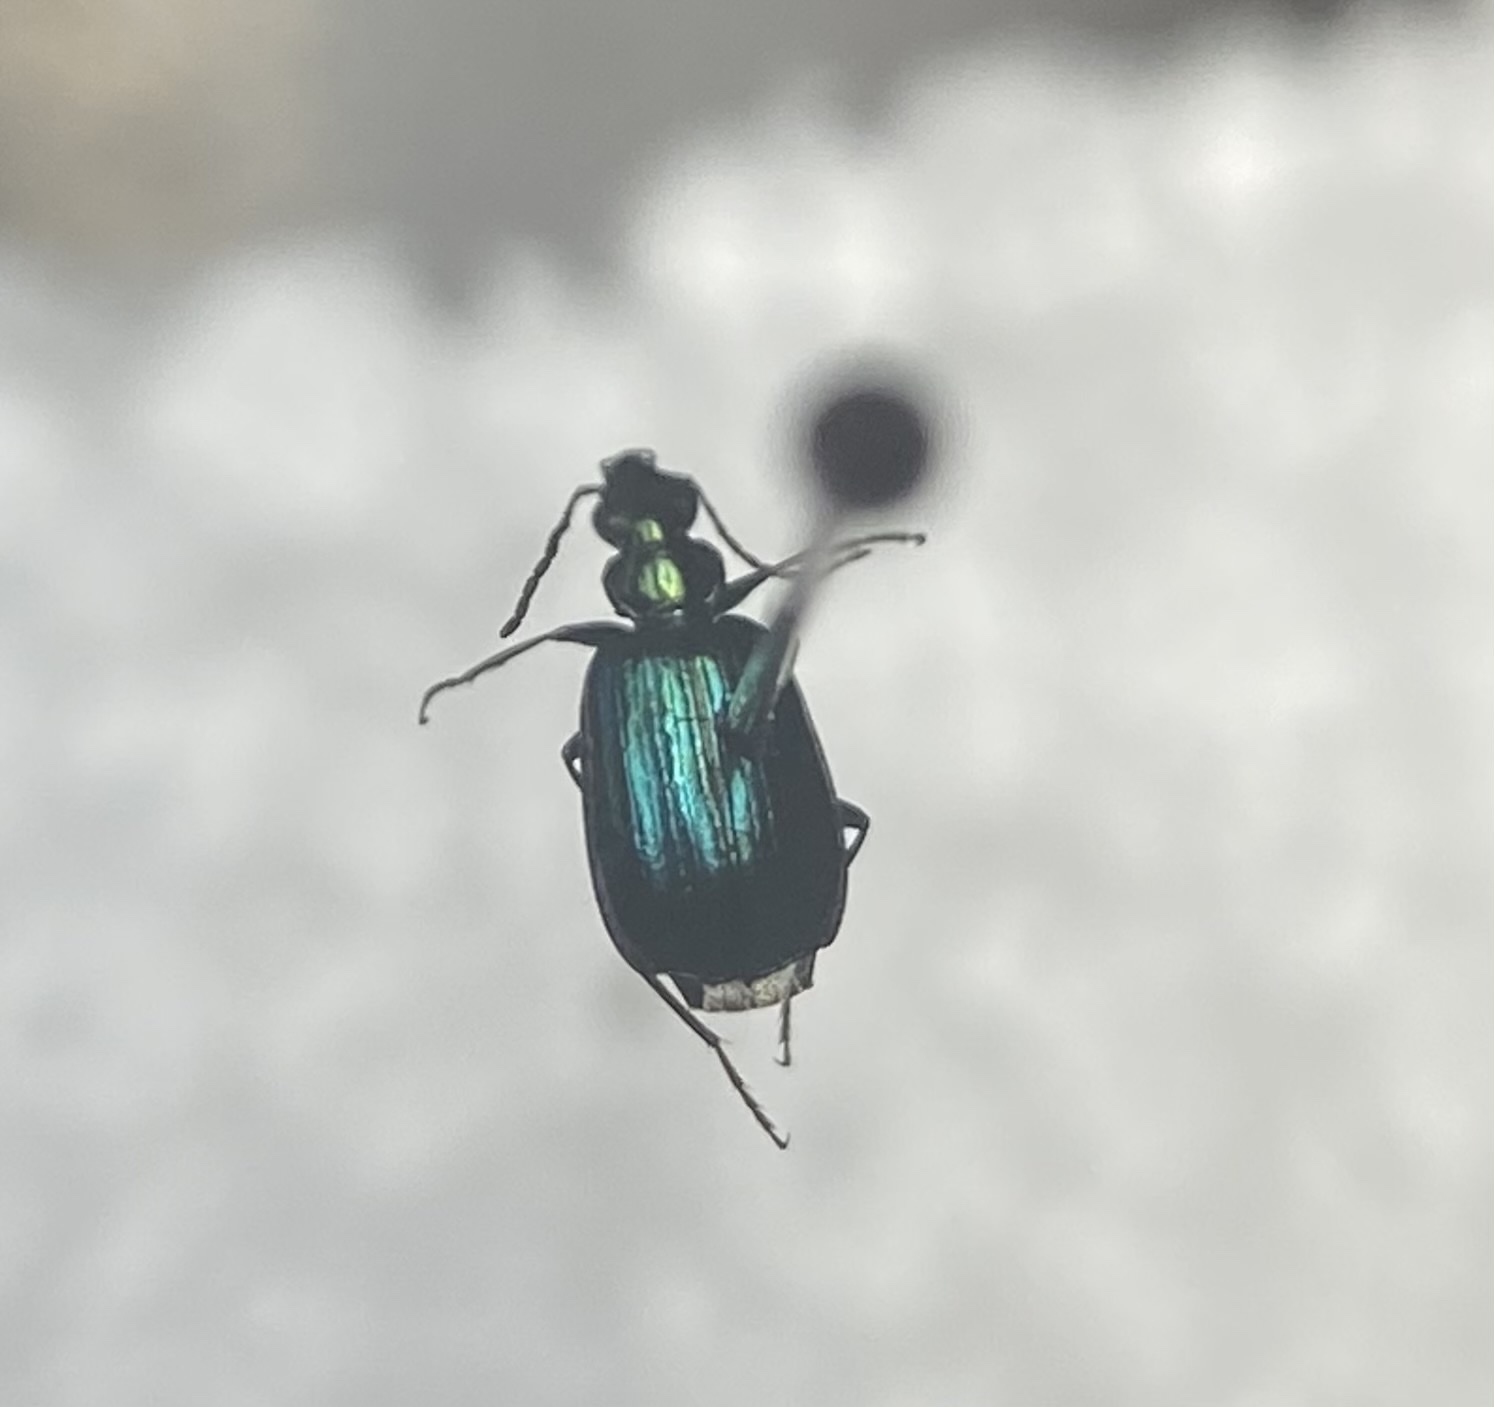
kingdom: Animalia
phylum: Arthropoda
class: Insecta
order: Coleoptera
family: Carabidae
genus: Lebia
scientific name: Lebia viridis
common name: Flower lebia beetle
